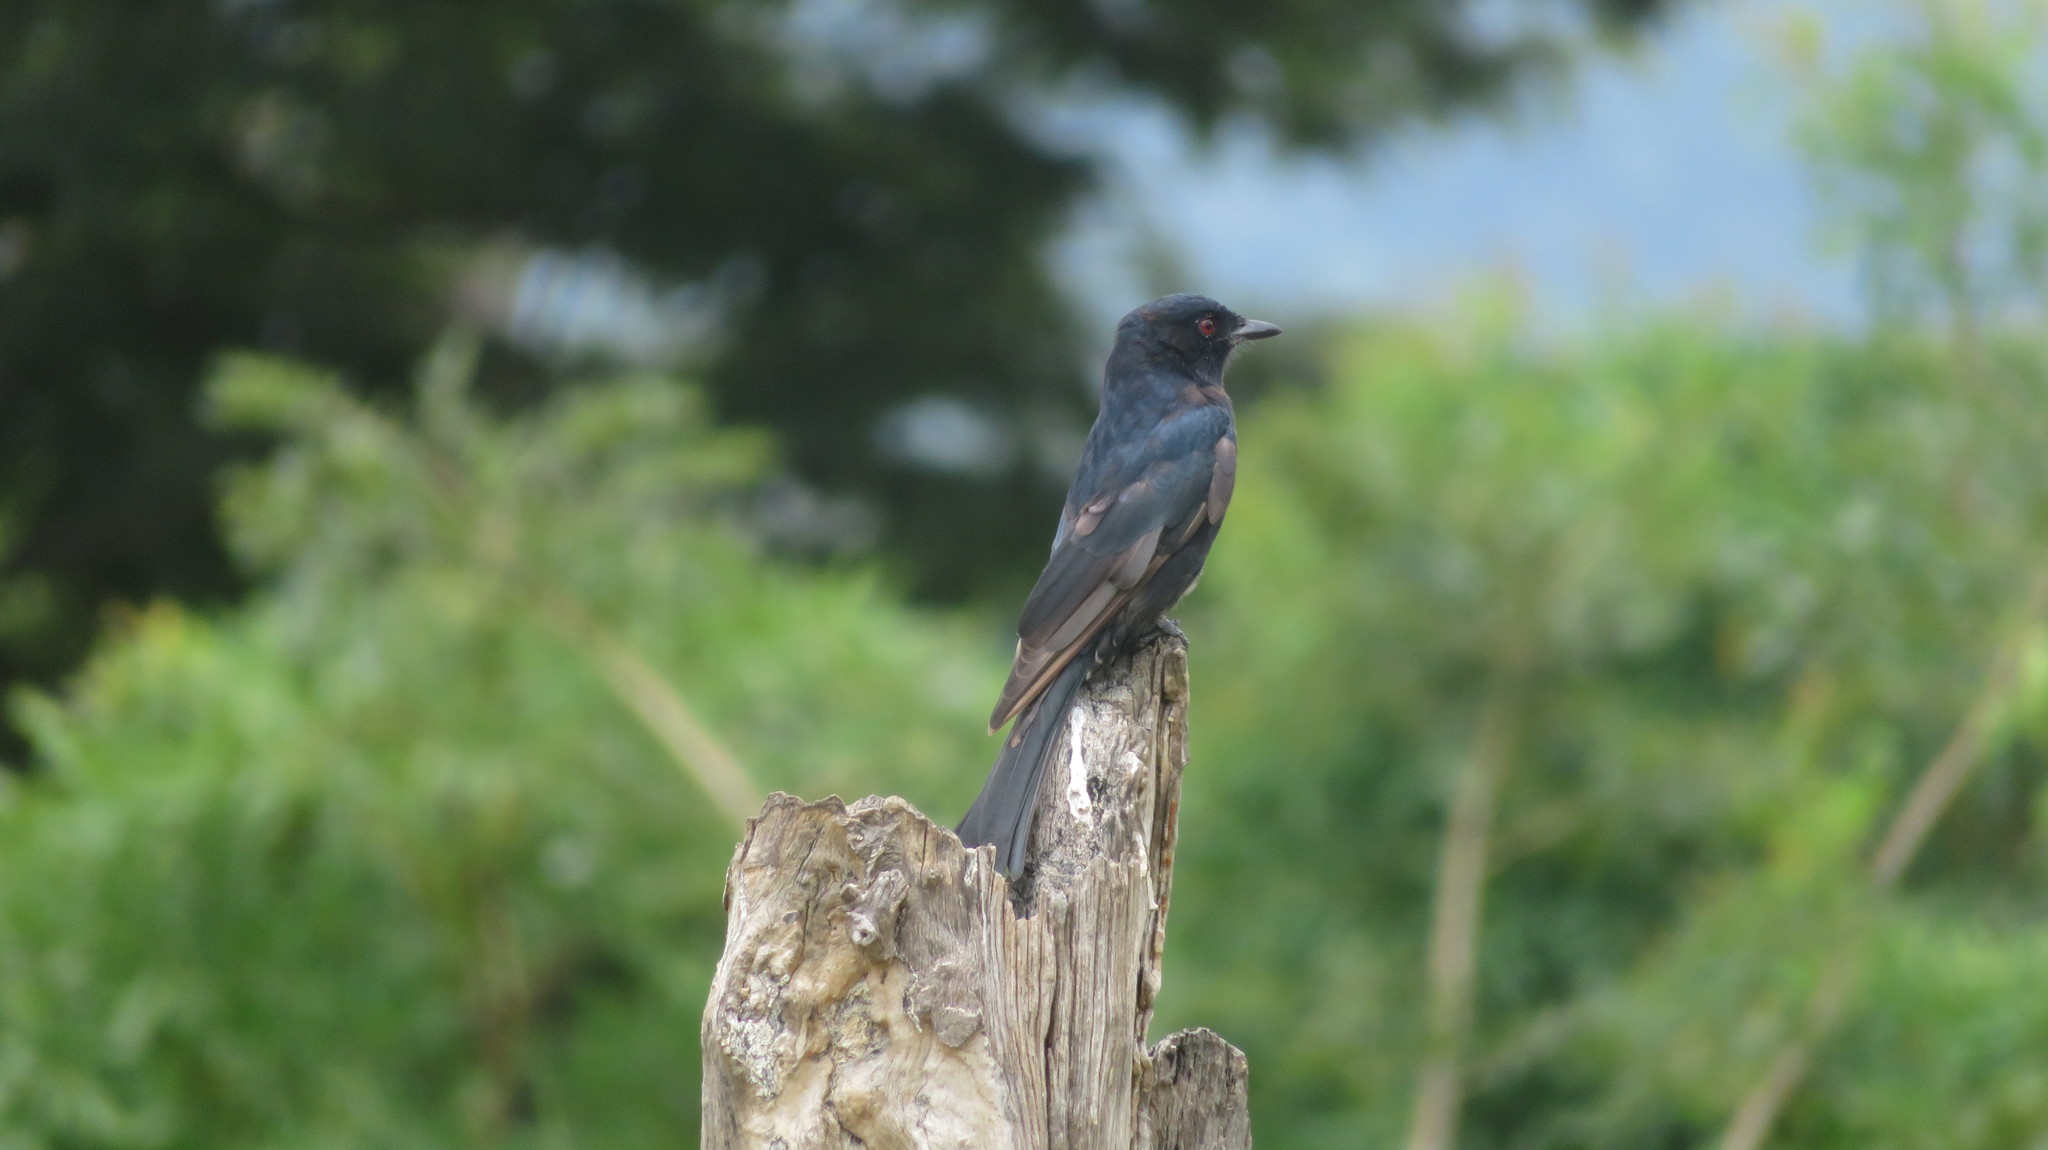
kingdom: Animalia
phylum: Chordata
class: Aves
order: Passeriformes
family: Dicruridae
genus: Dicrurus
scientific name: Dicrurus adsimilis
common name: Fork-tailed drongo
